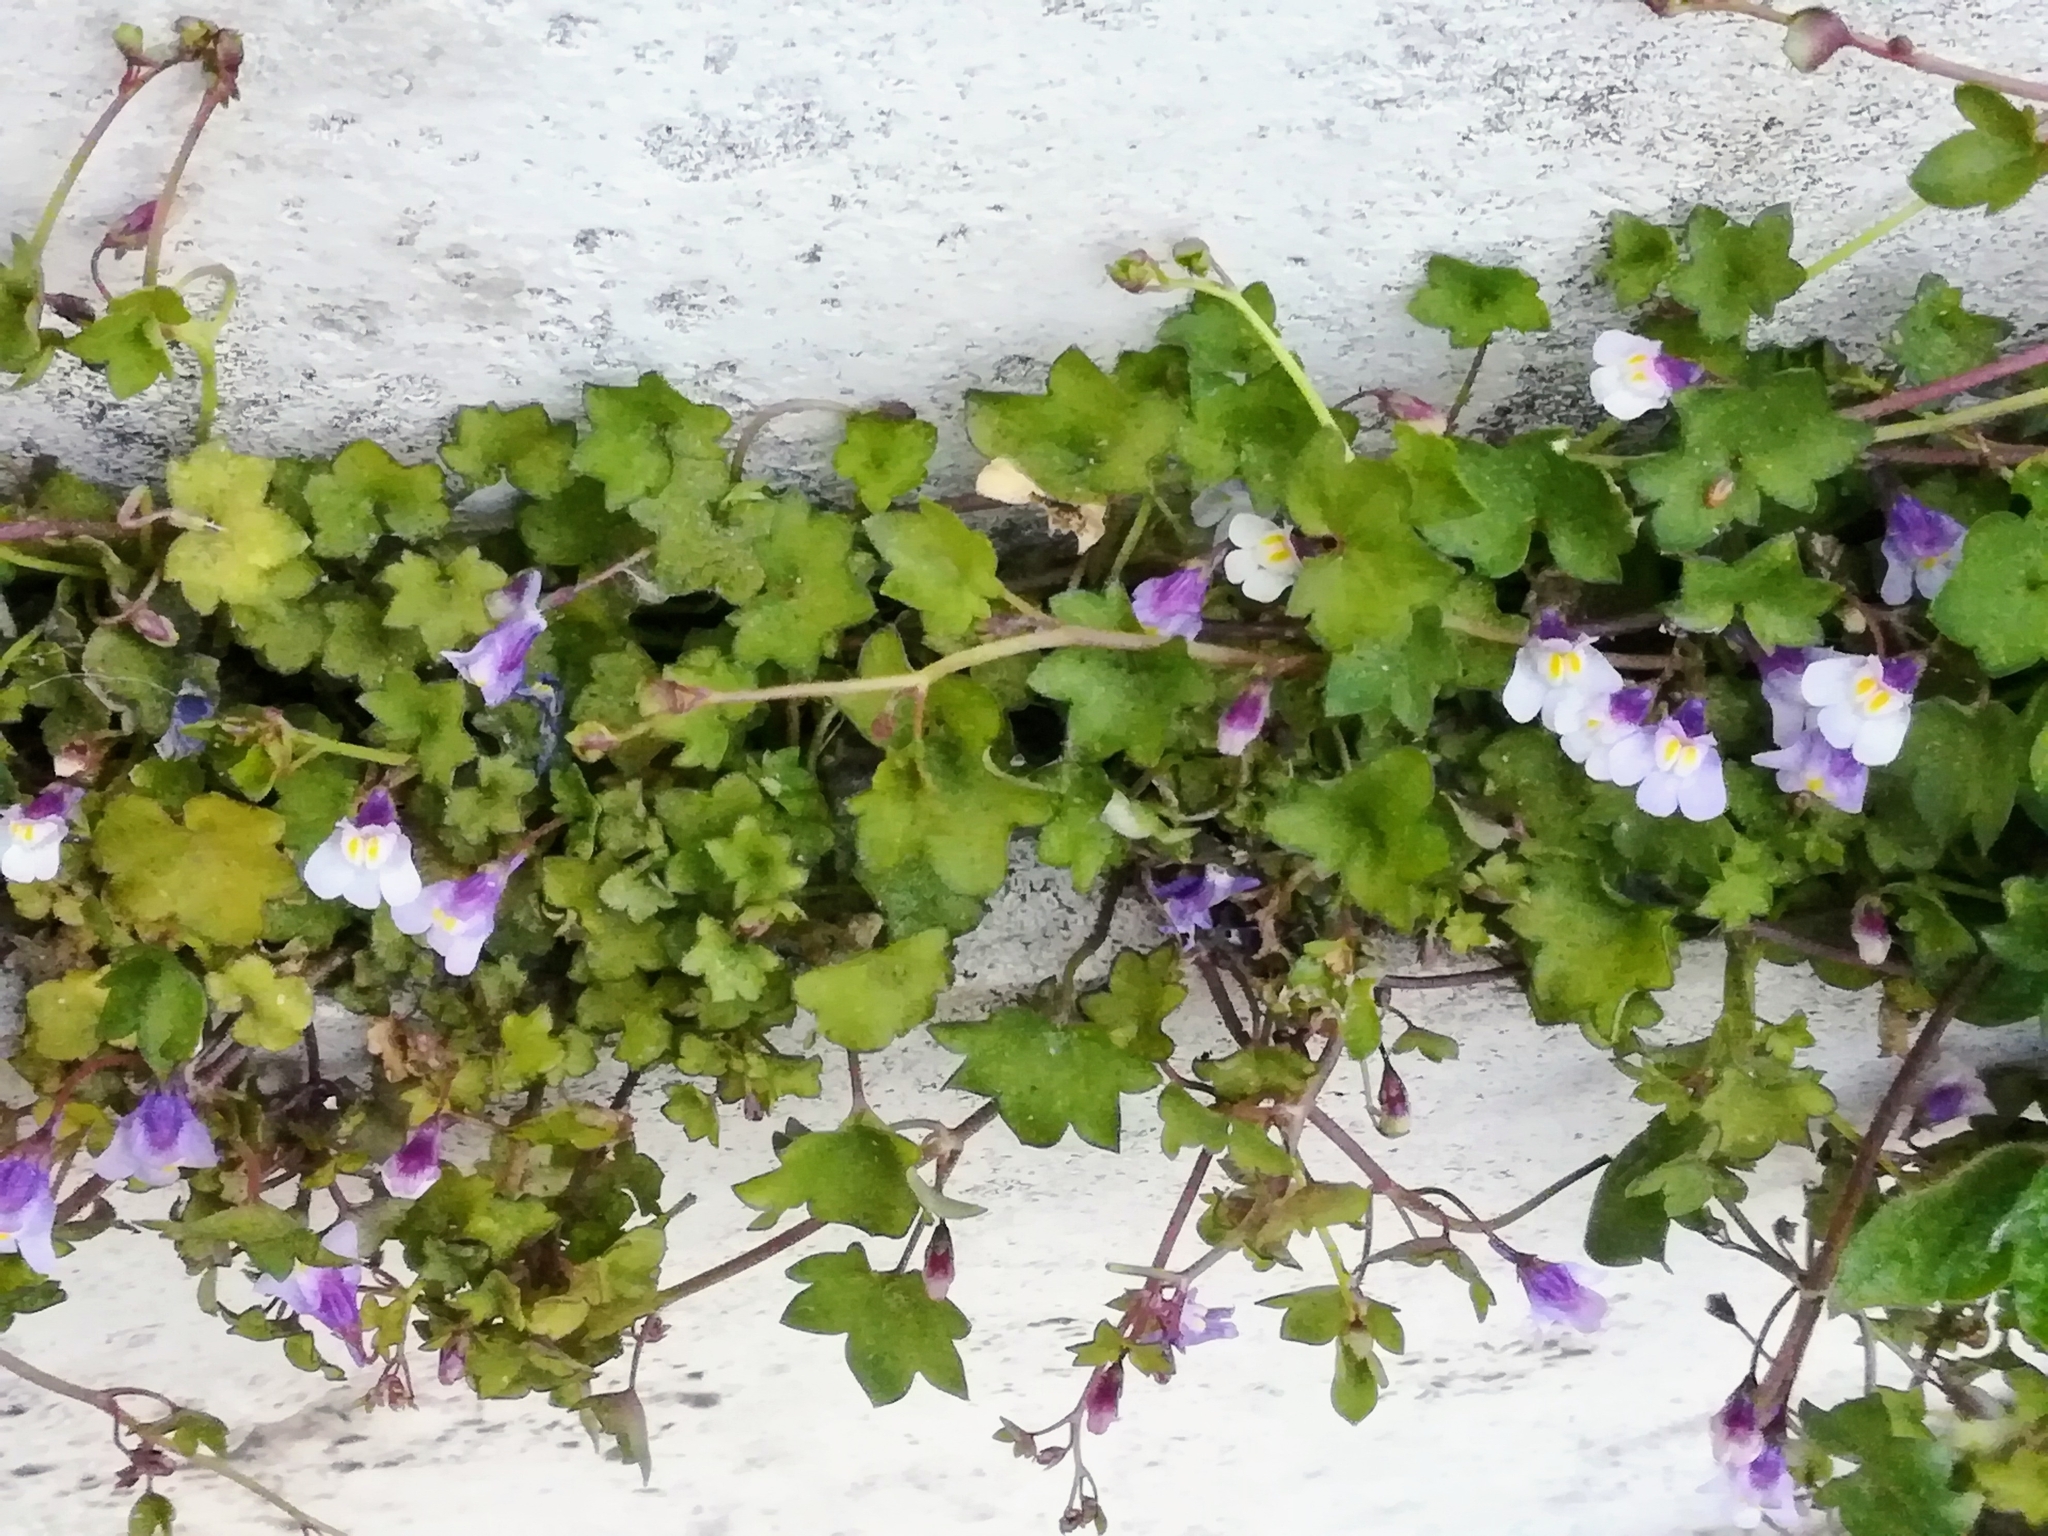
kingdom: Plantae
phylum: Tracheophyta
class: Magnoliopsida
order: Lamiales
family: Plantaginaceae
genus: Cymbalaria
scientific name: Cymbalaria muralis
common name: Ivy-leaved toadflax
